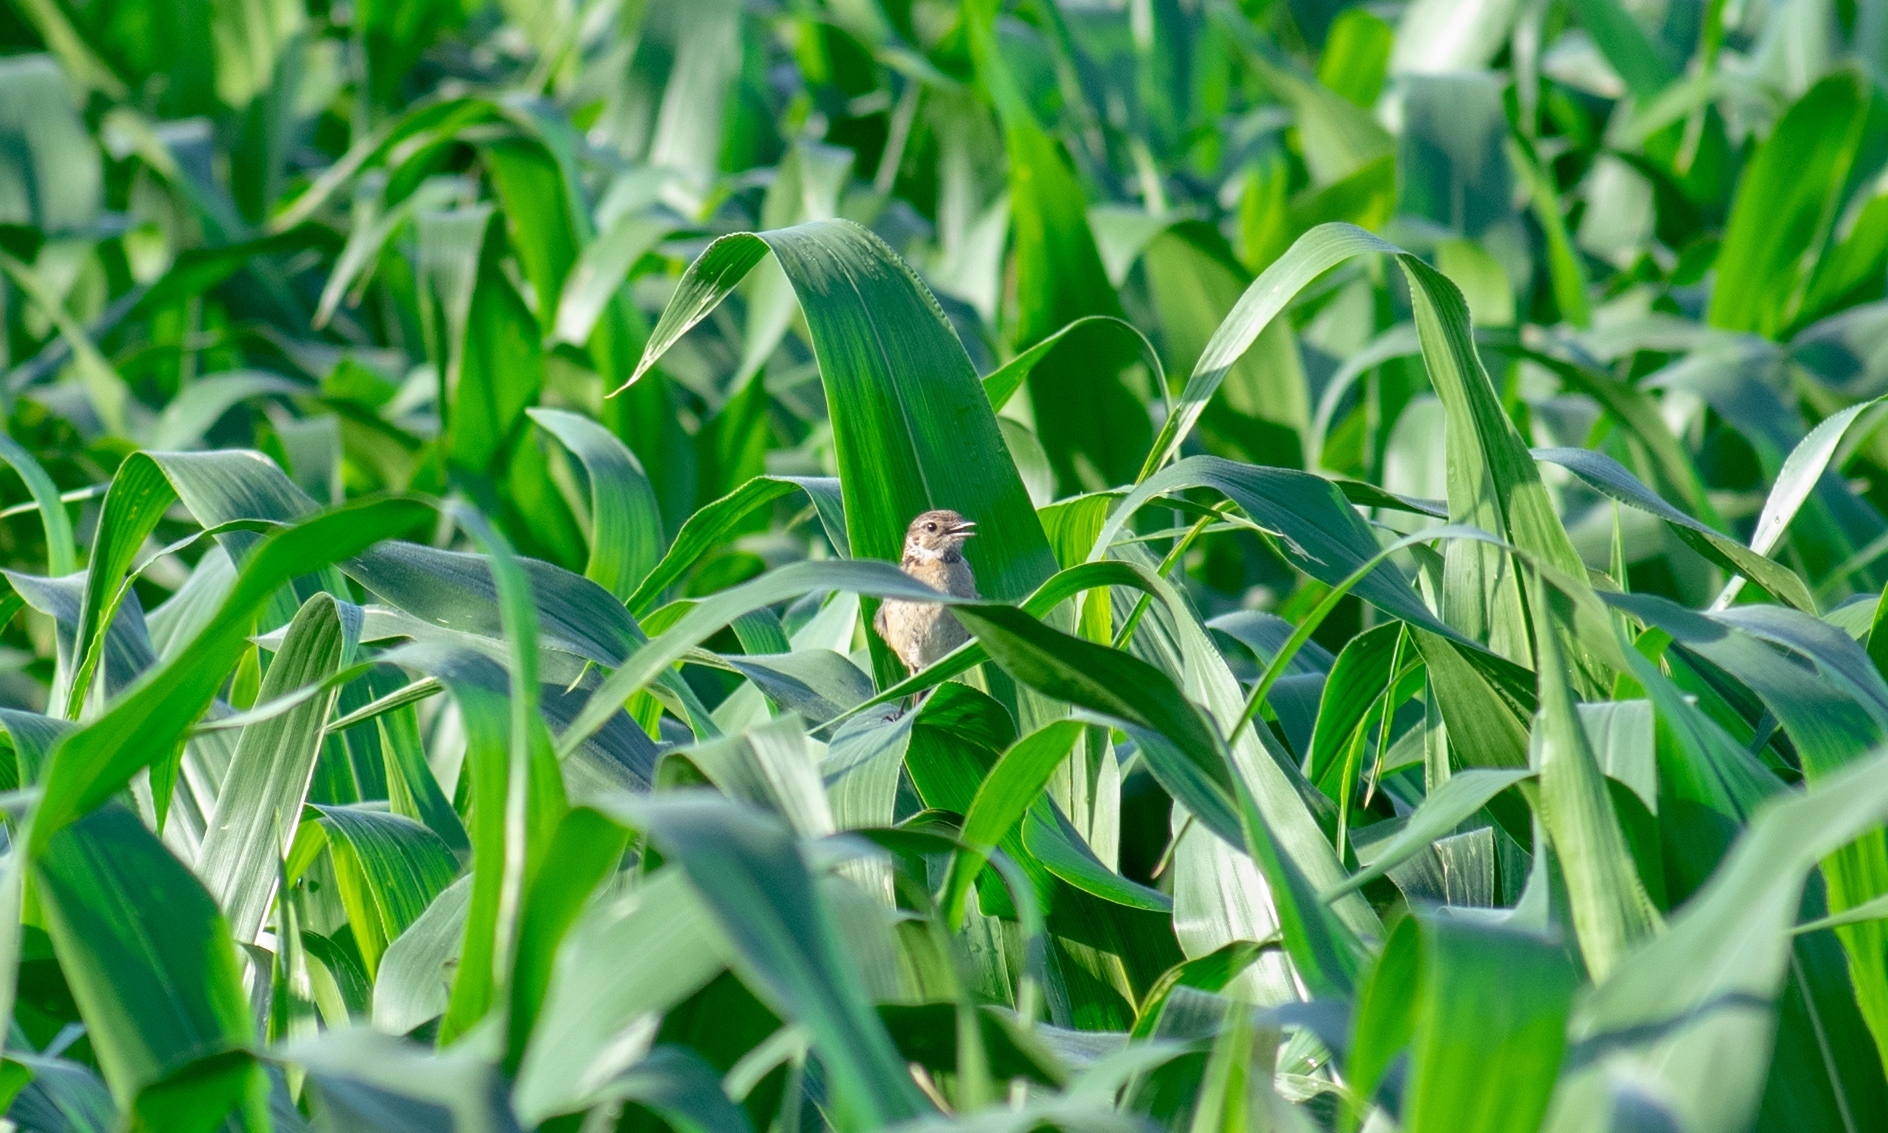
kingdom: Animalia
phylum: Chordata
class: Aves
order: Passeriformes
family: Muscicapidae
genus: Saxicola
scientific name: Saxicola rubicola
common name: European stonechat
